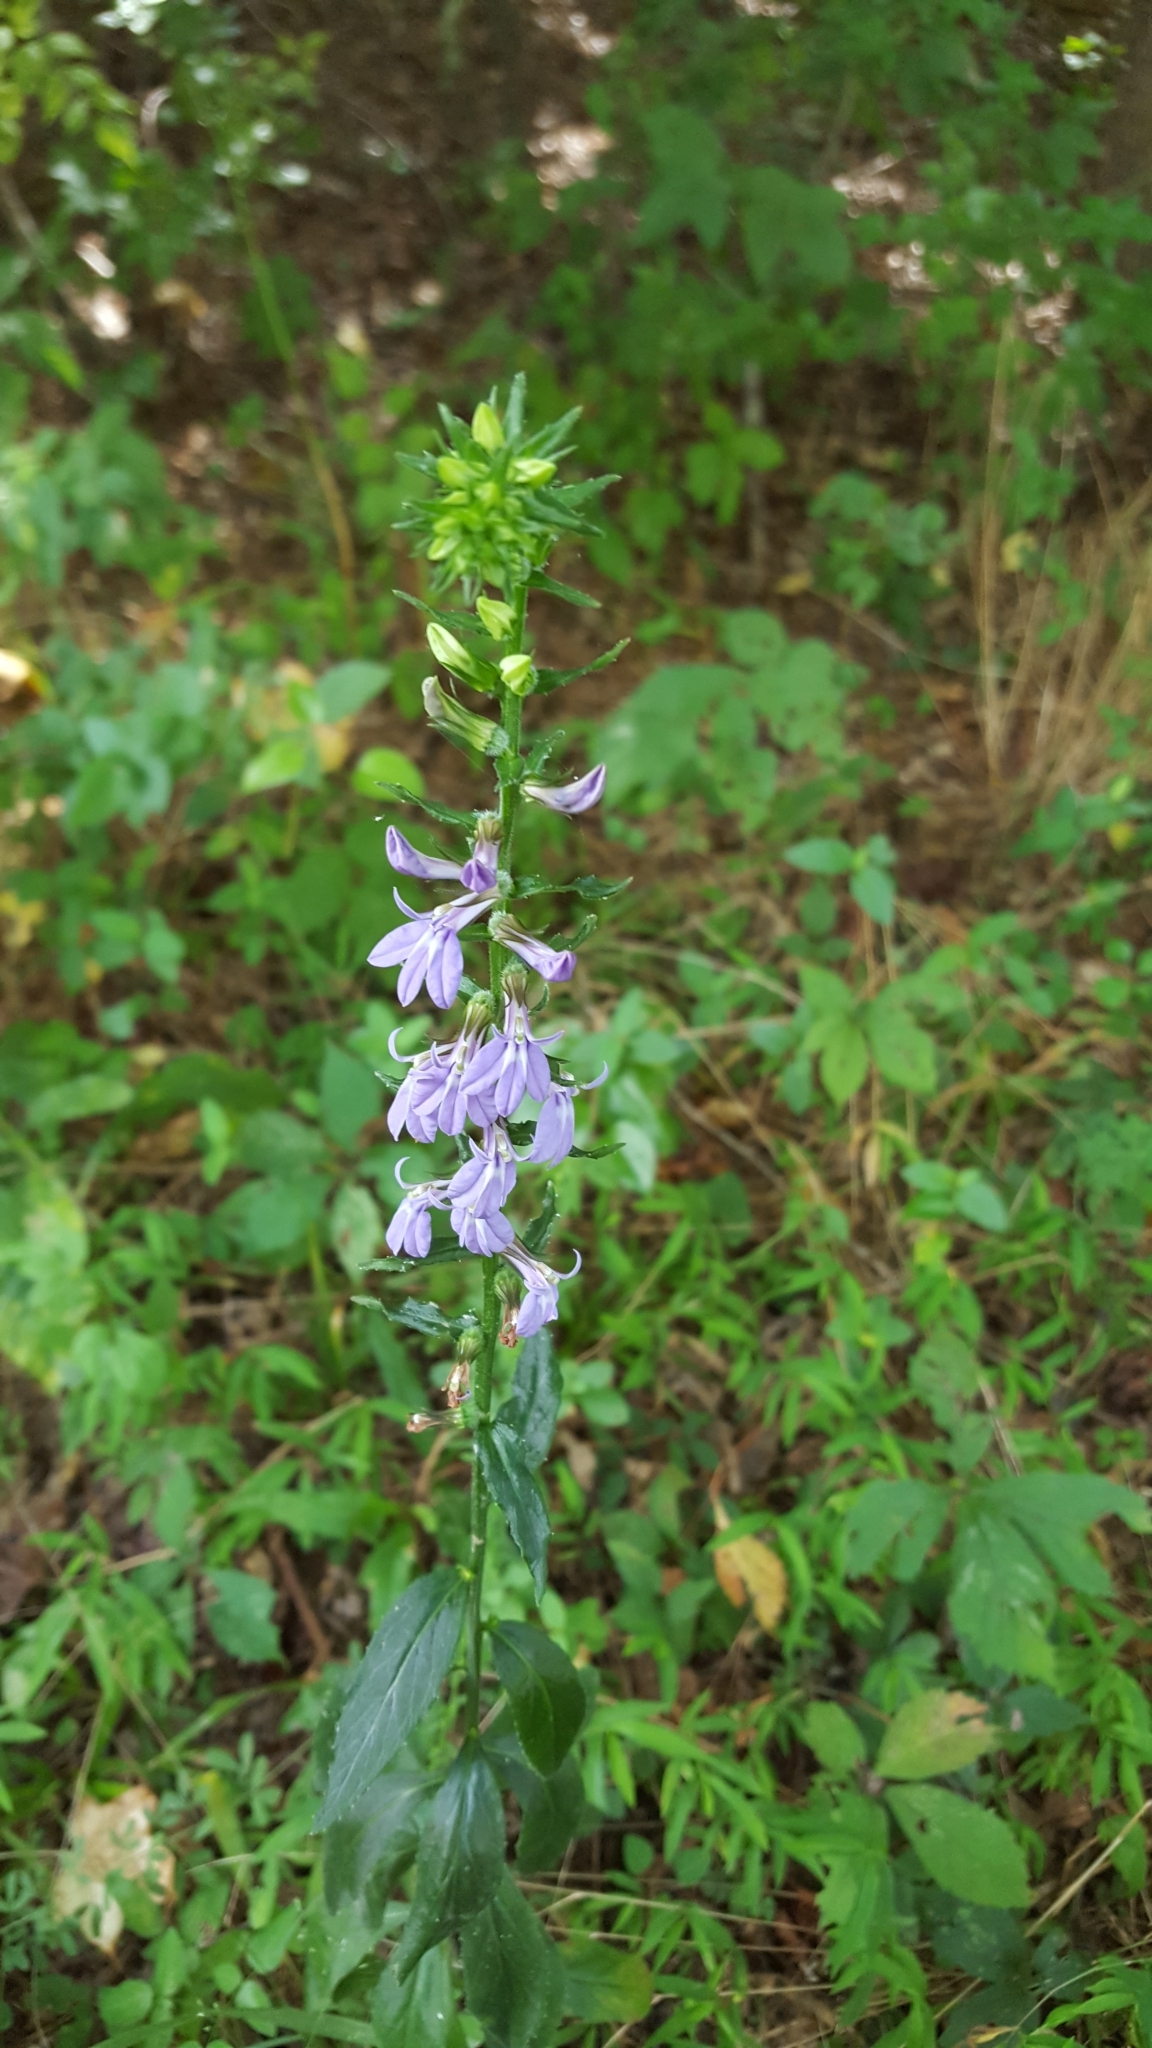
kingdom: Plantae
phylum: Tracheophyta
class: Magnoliopsida
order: Asterales
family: Campanulaceae
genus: Lobelia
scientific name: Lobelia puberula
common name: Purple dewdrop
